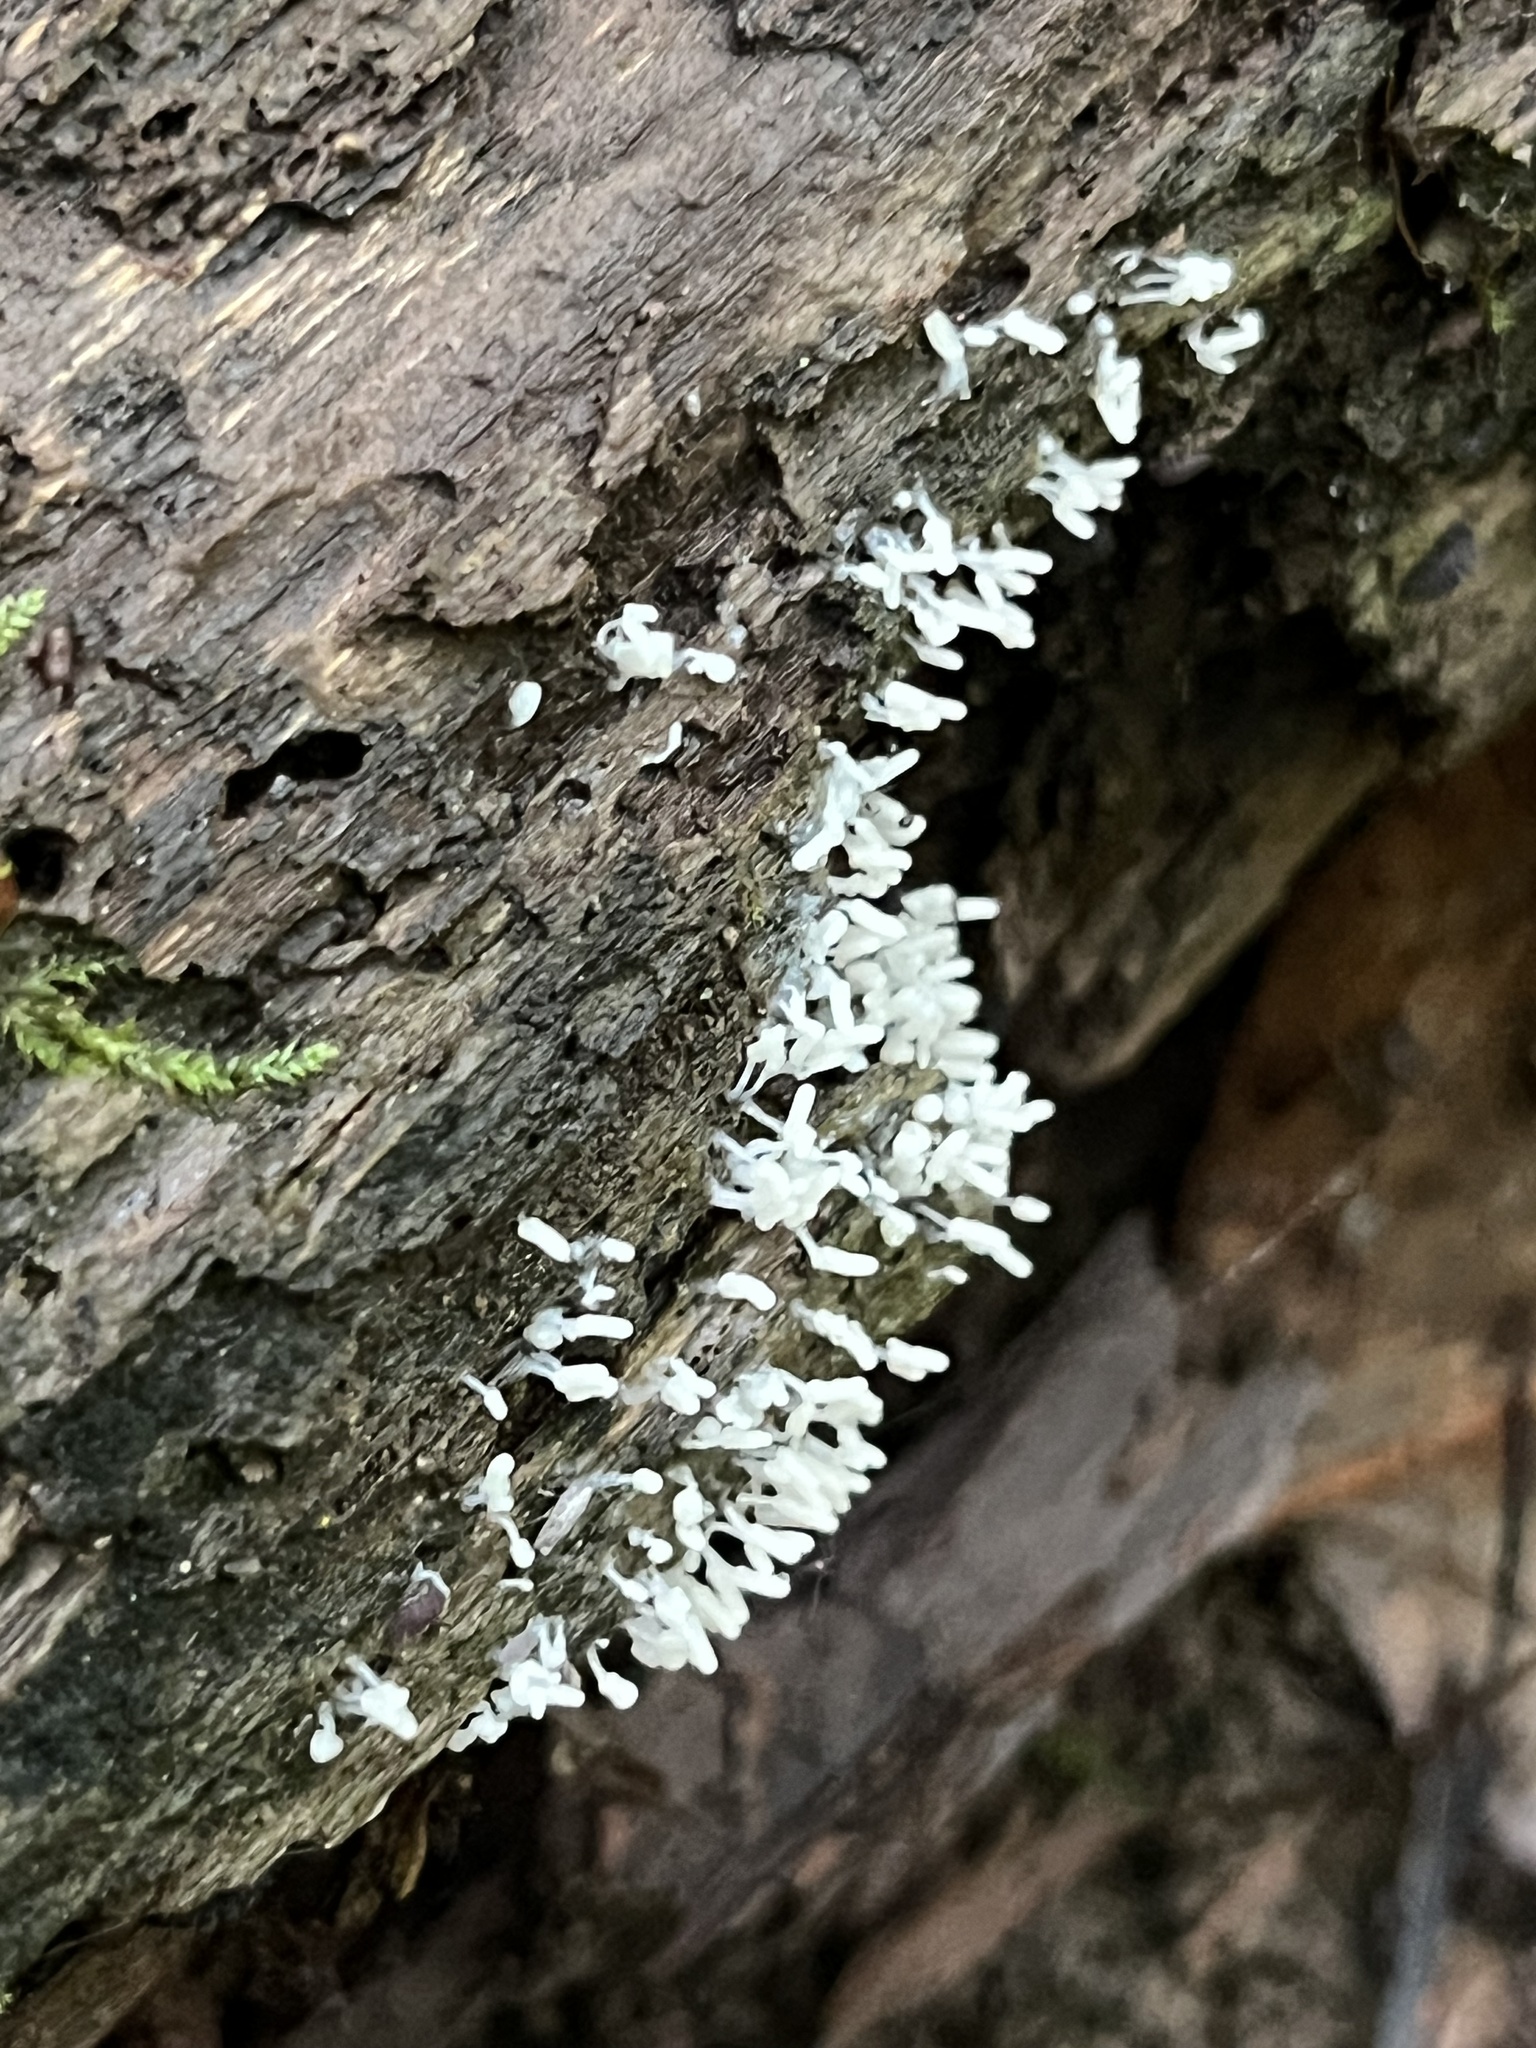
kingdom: Protozoa
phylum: Mycetozoa
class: Myxomycetes
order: Trichiales
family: Arcyriaceae
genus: Arcyria
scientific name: Arcyria cinerea
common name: White carnival candy slime mold
